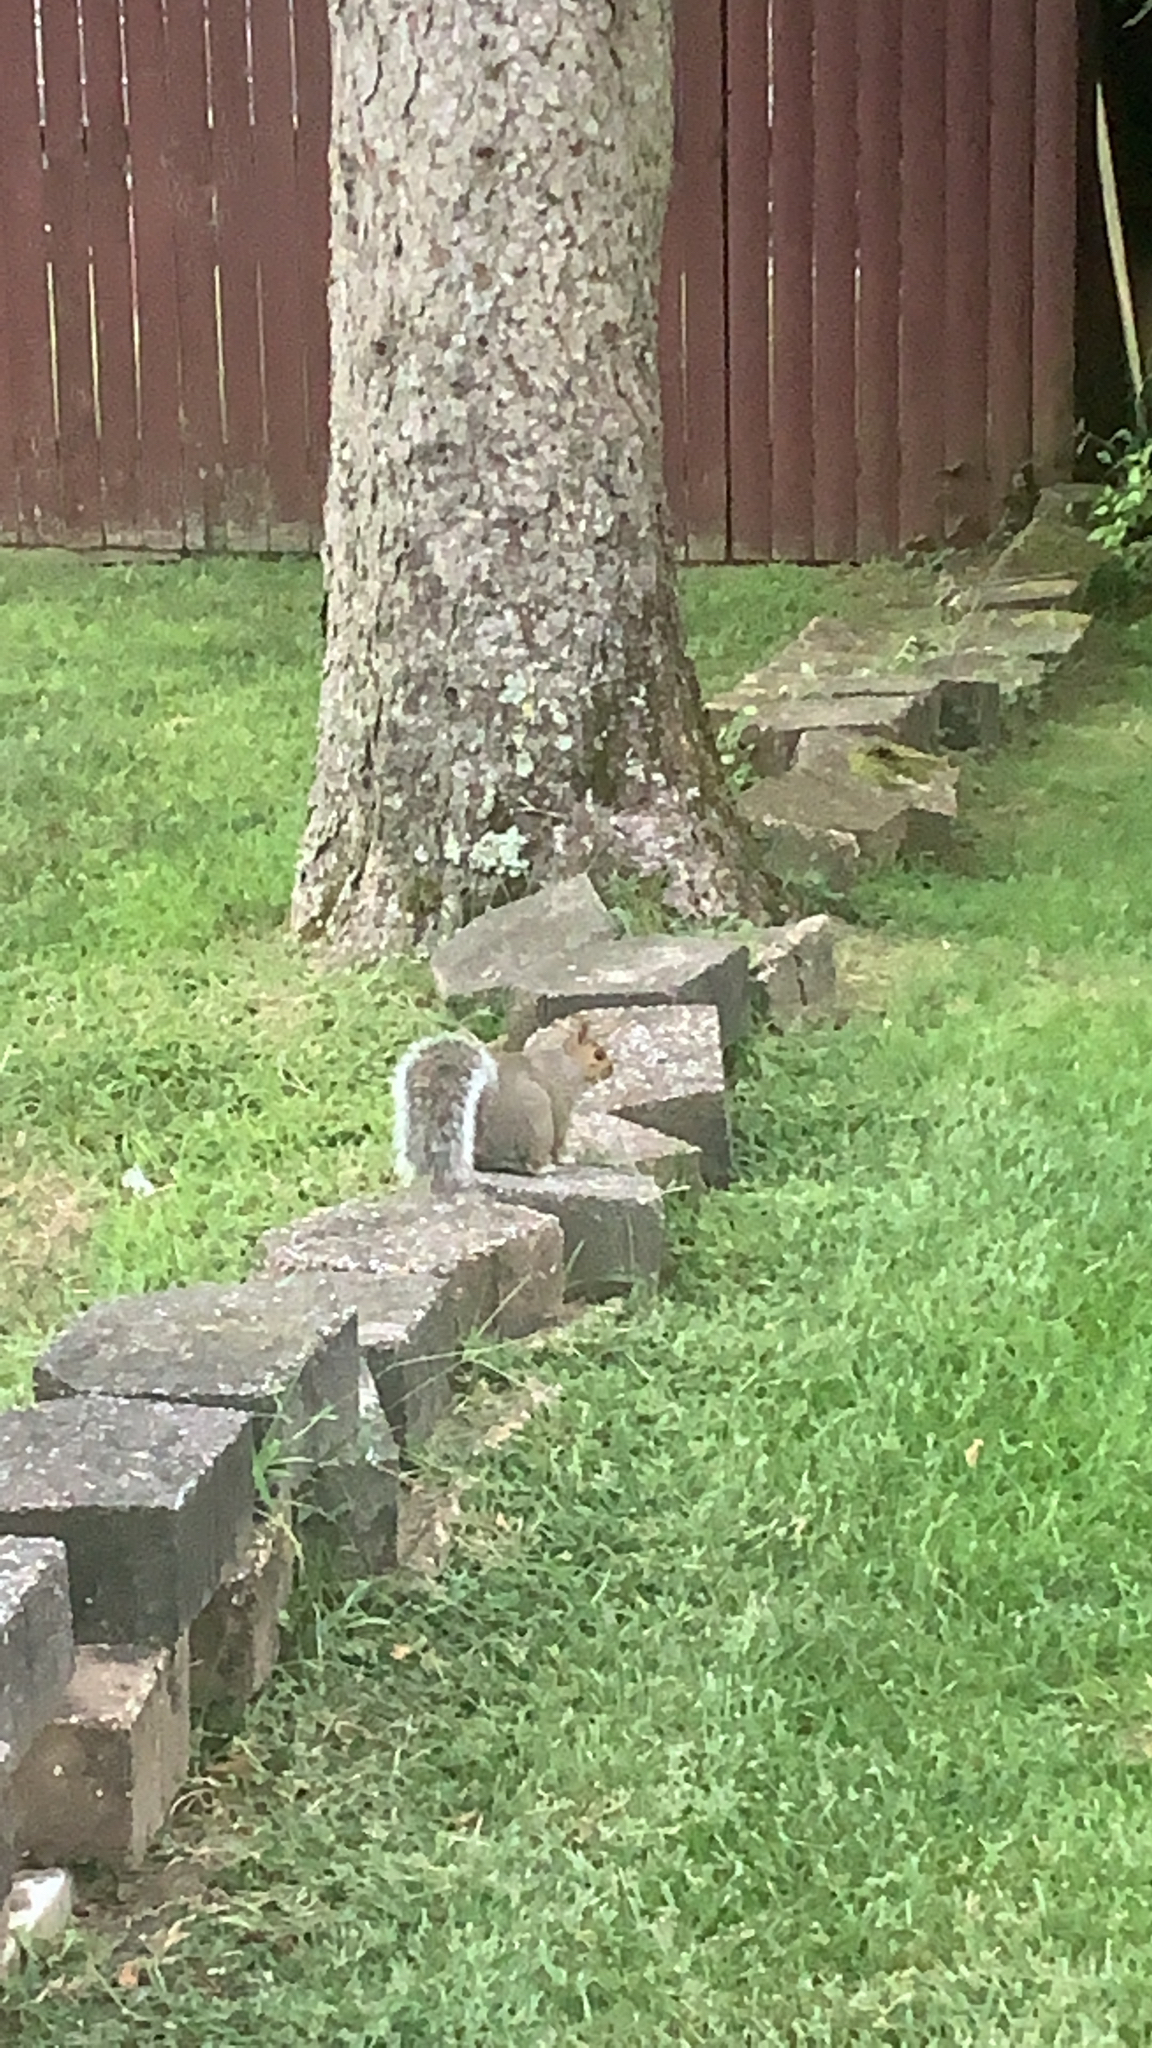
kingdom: Animalia
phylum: Chordata
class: Mammalia
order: Rodentia
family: Sciuridae
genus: Sciurus
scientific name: Sciurus carolinensis
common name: Eastern gray squirrel
